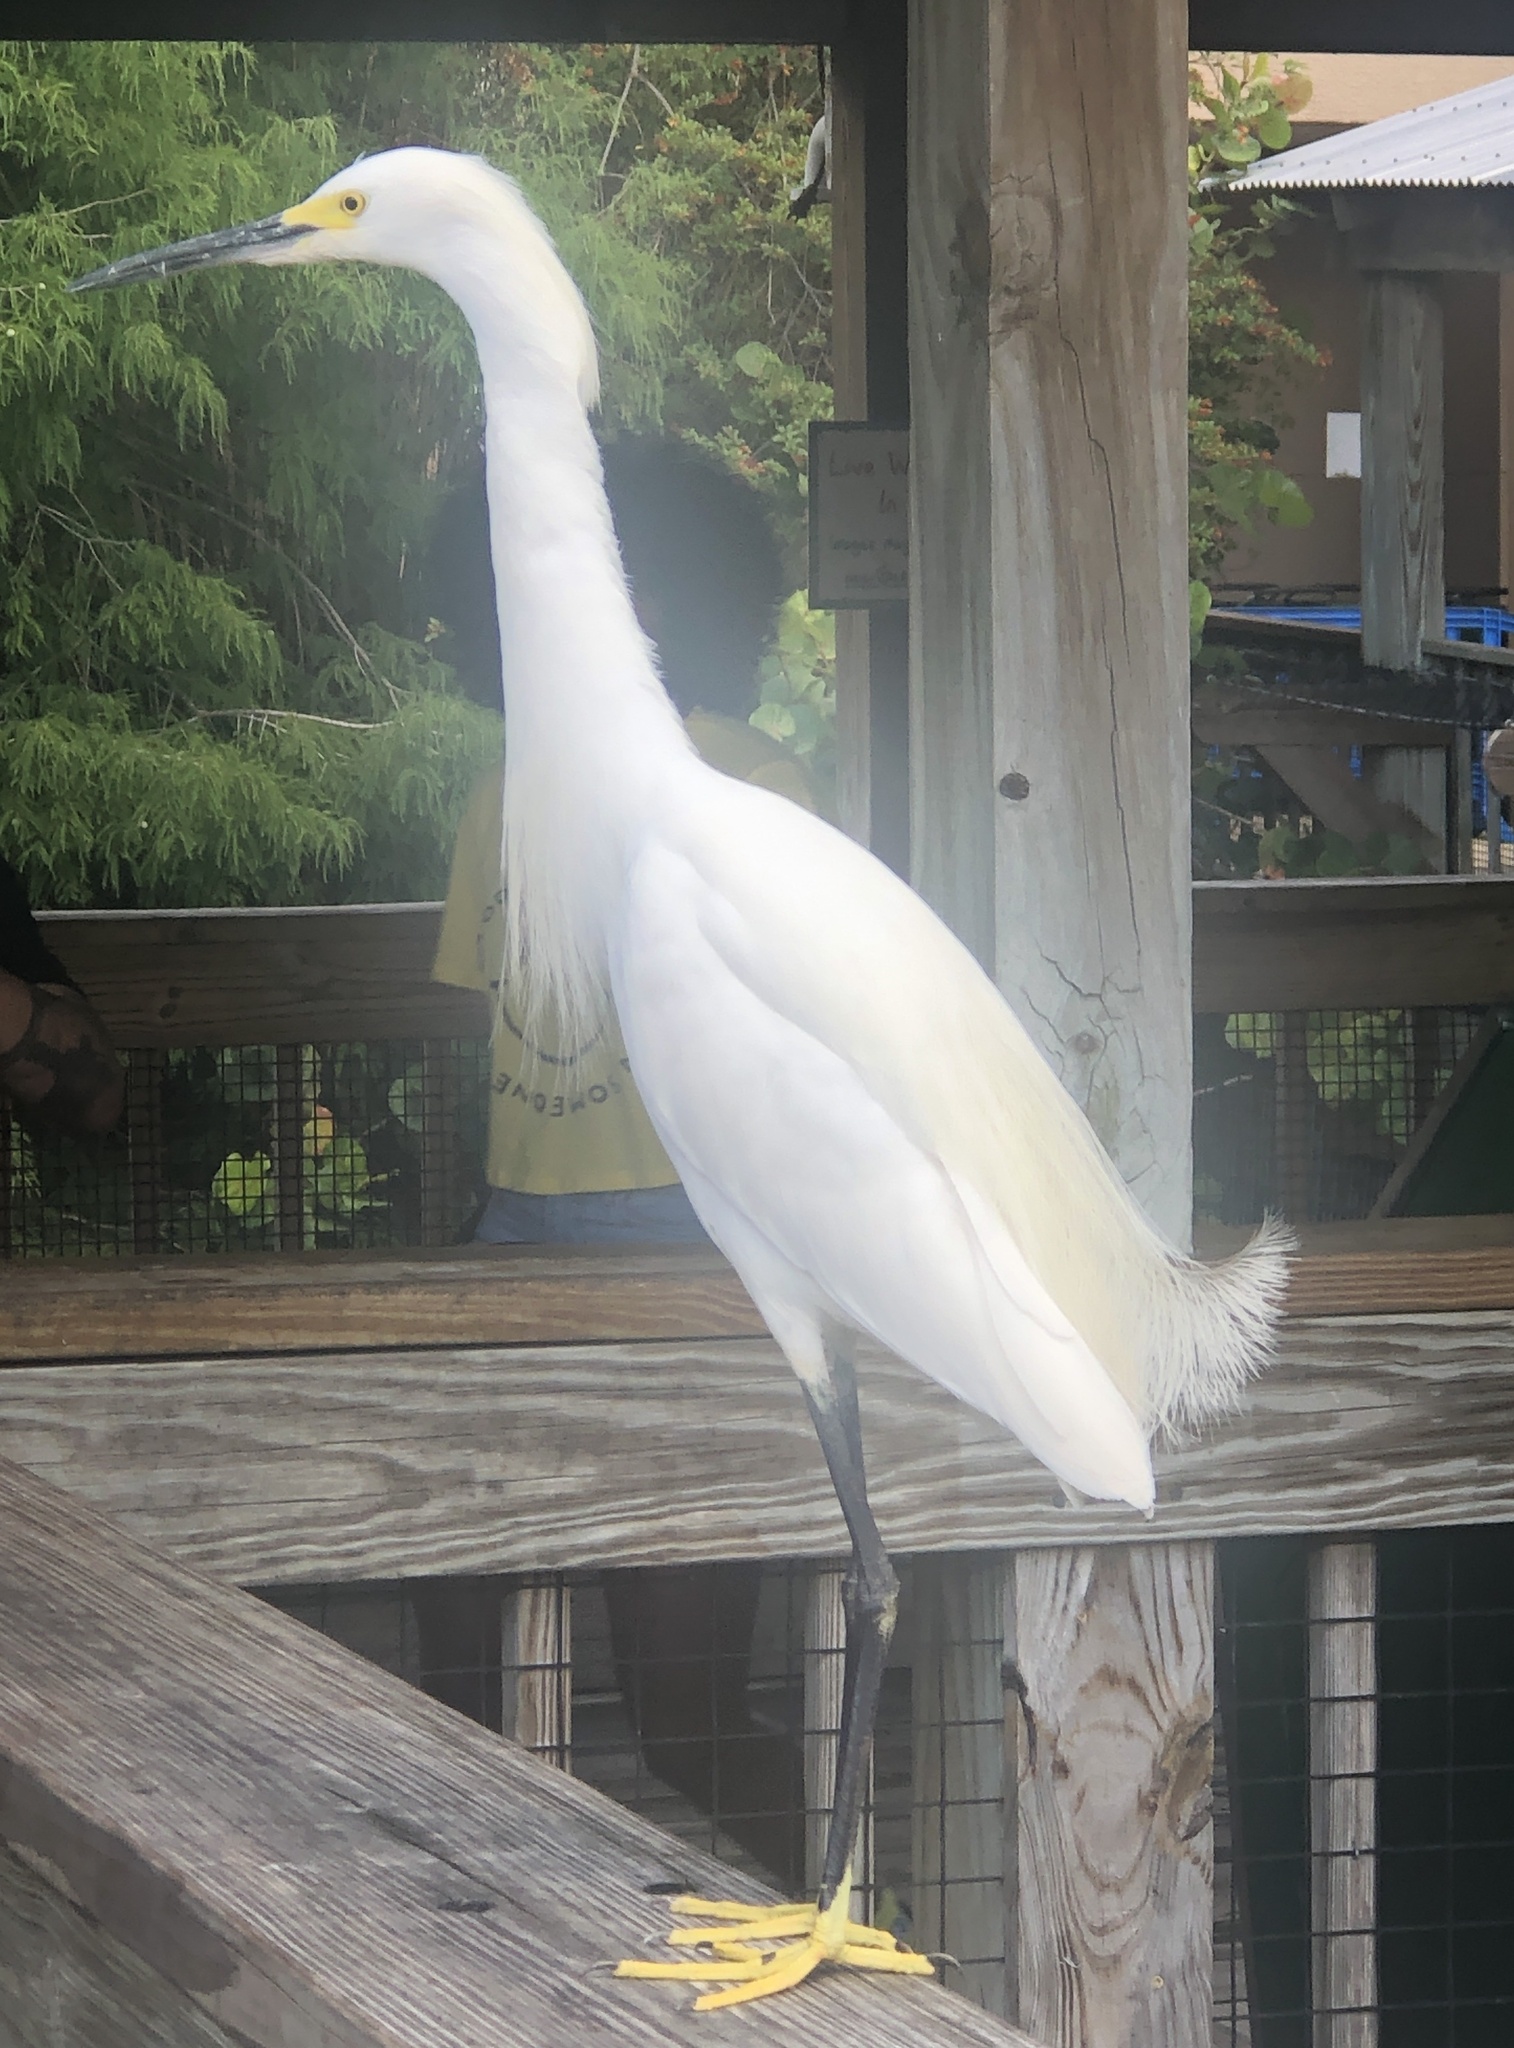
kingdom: Animalia
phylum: Chordata
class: Aves
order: Pelecaniformes
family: Ardeidae
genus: Egretta
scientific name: Egretta thula
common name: Snowy egret
